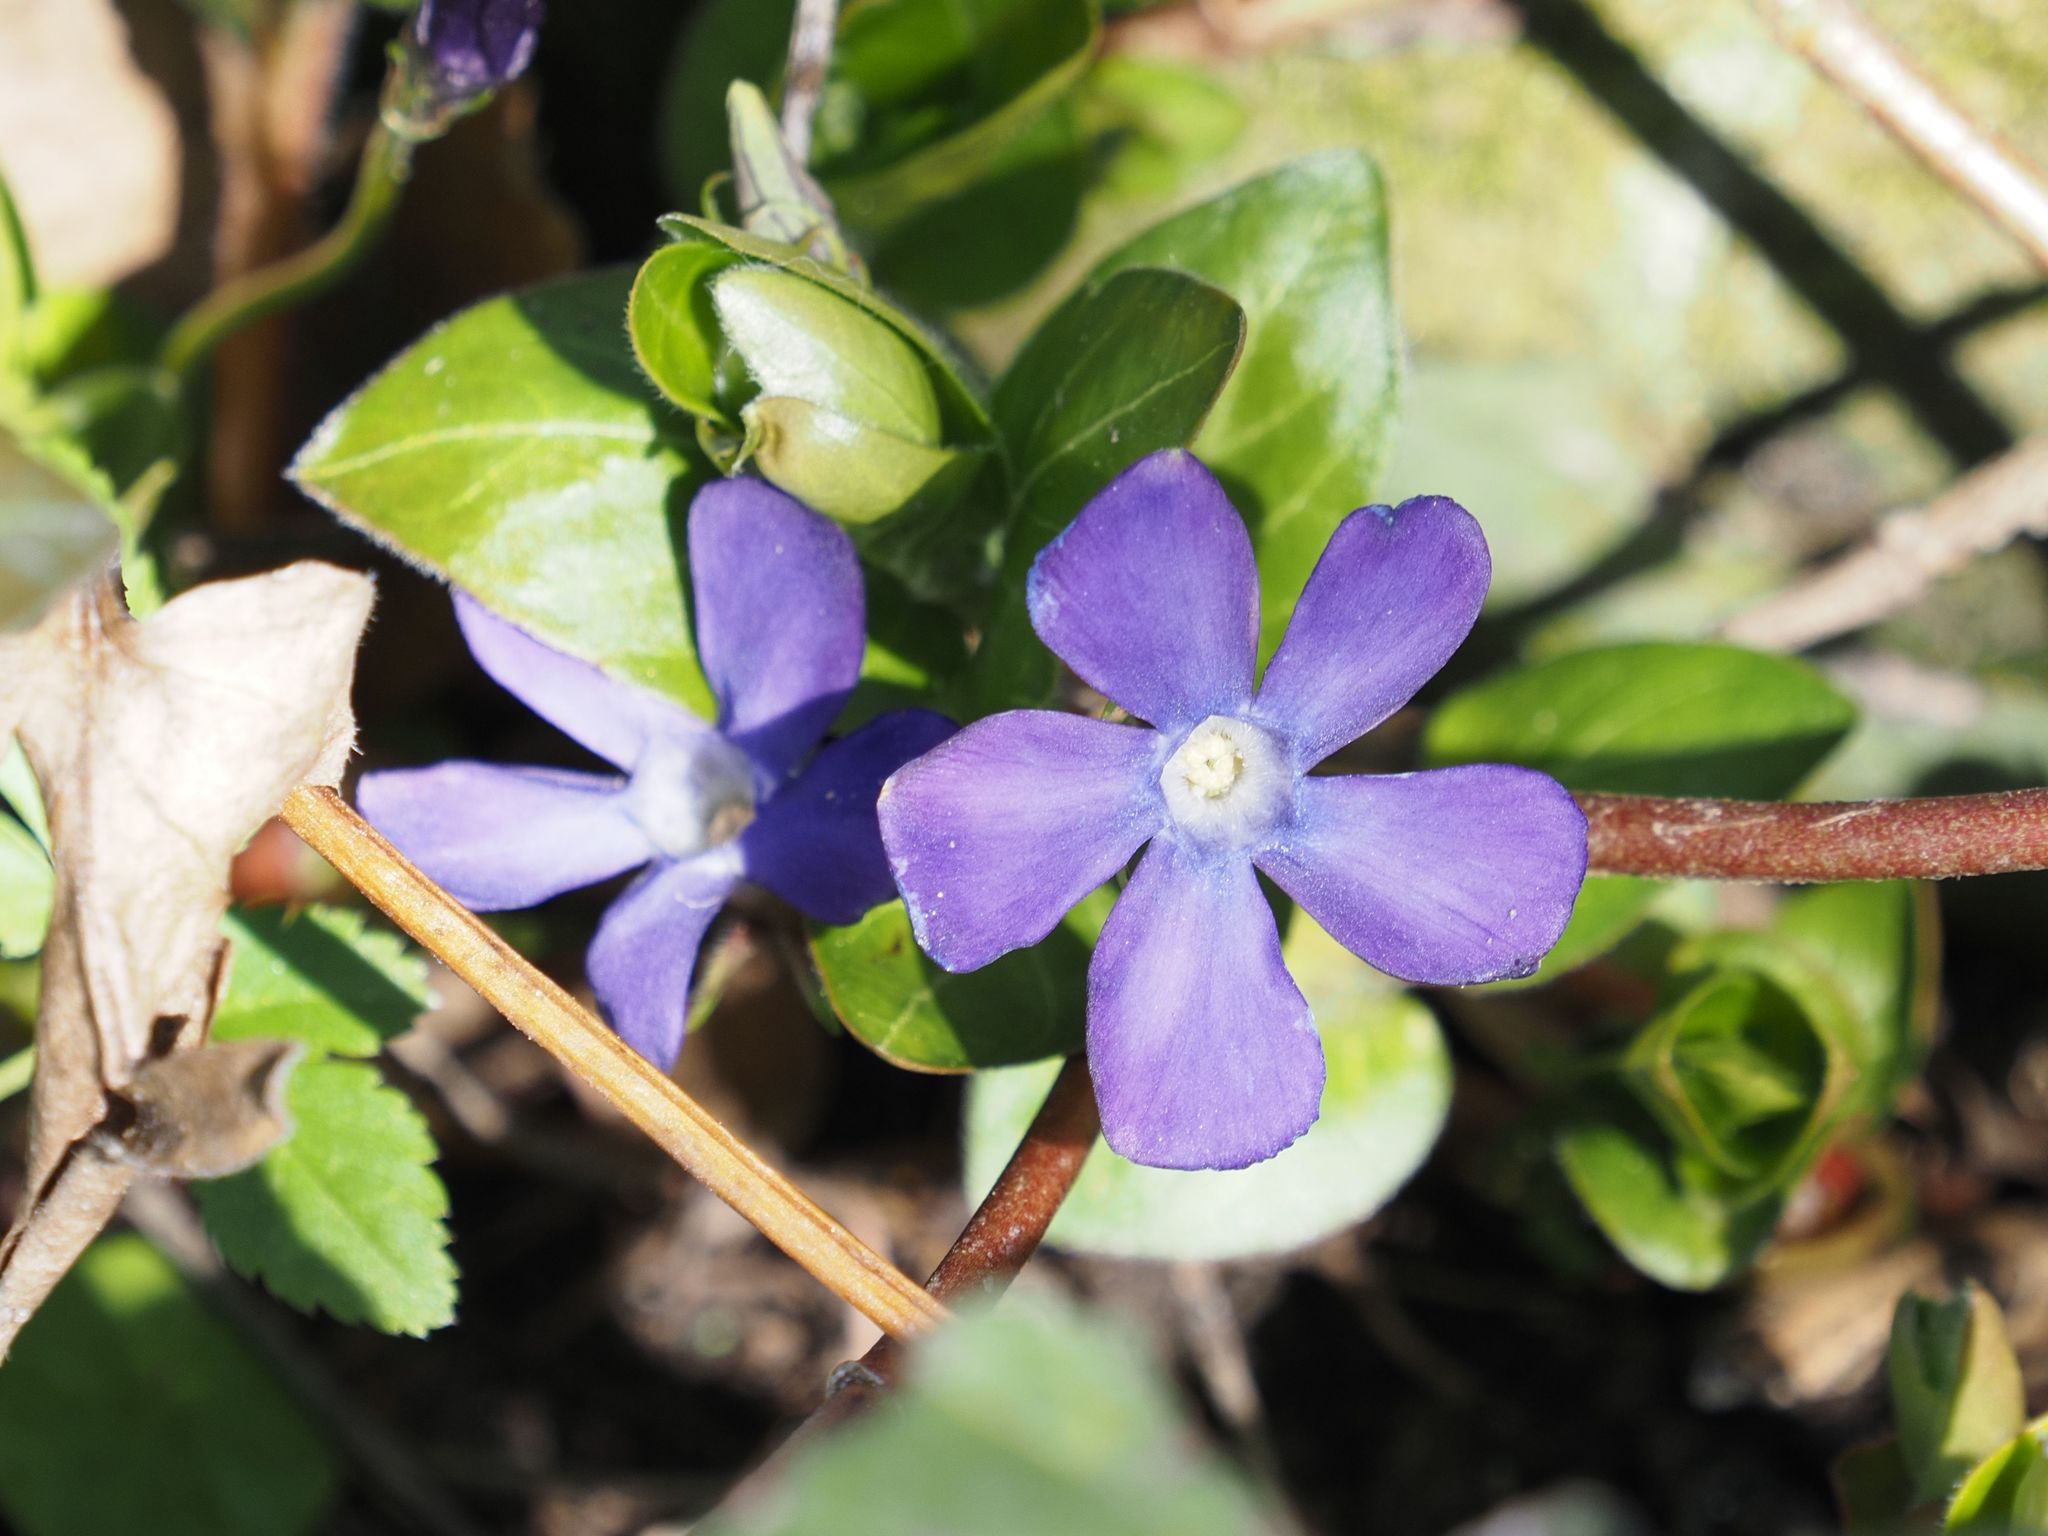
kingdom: Plantae
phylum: Tracheophyta
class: Magnoliopsida
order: Gentianales
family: Apocynaceae
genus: Vinca
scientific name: Vinca major
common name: Greater periwinkle
